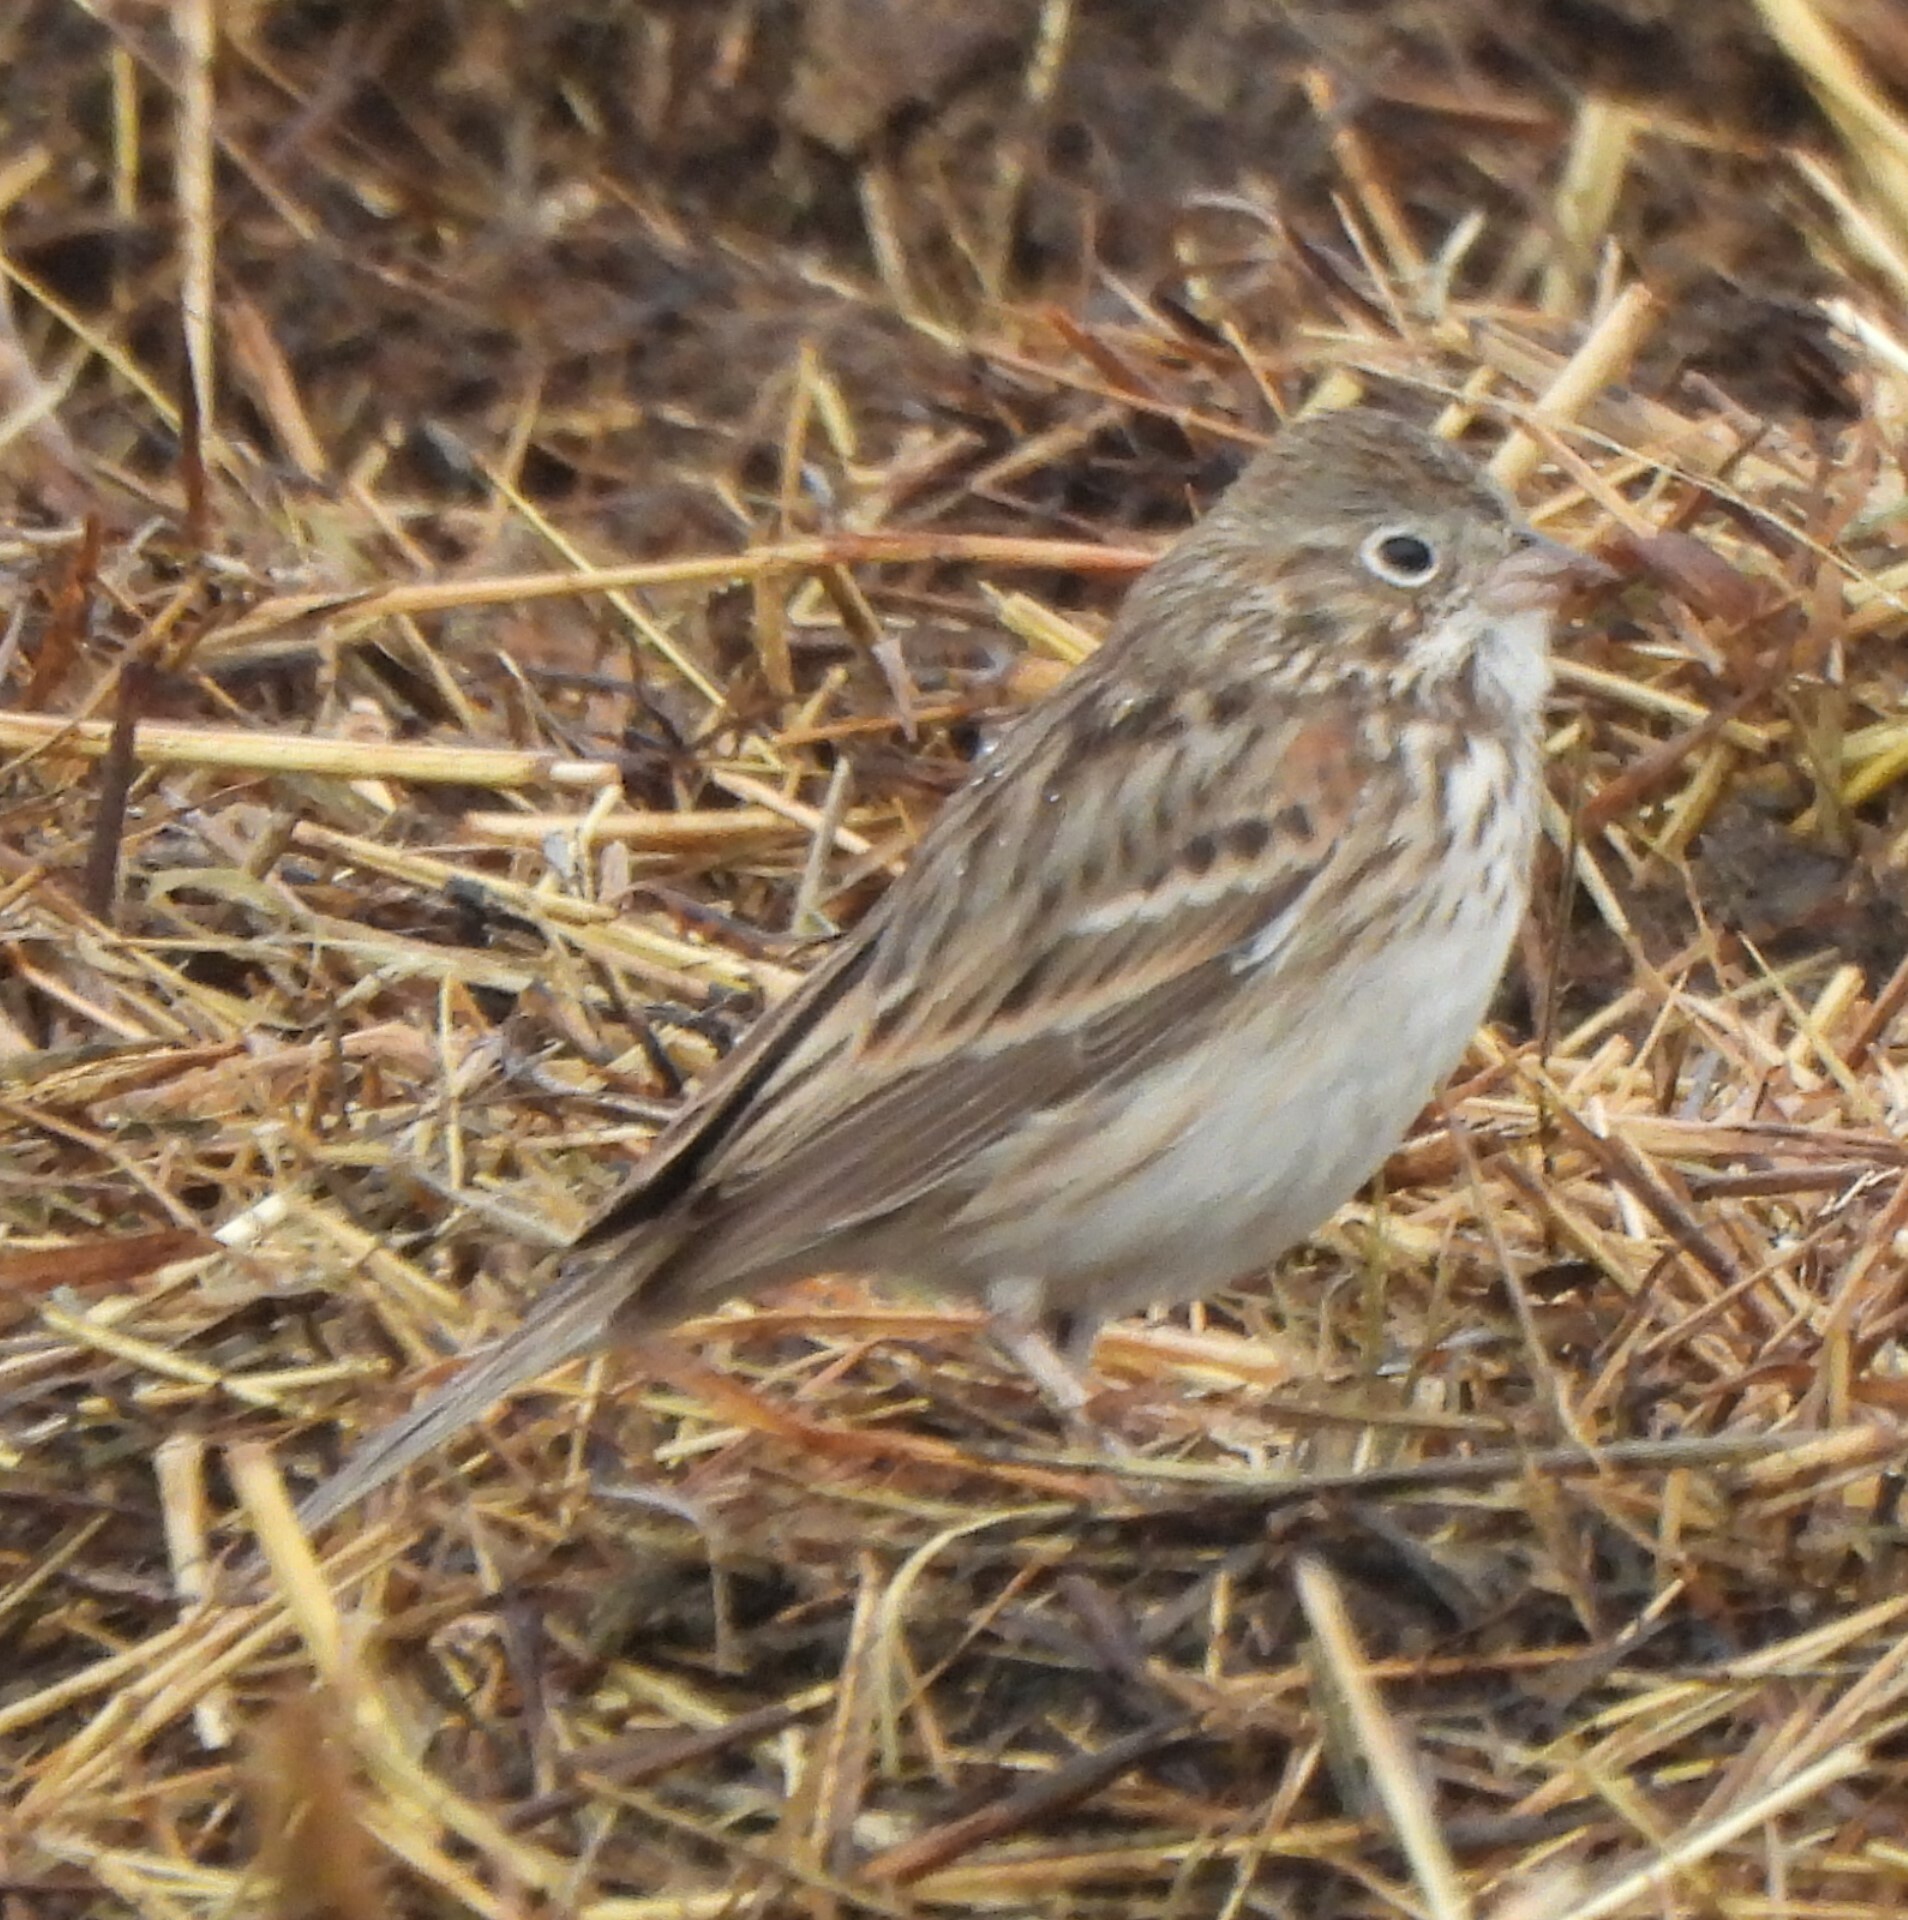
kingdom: Animalia
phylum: Chordata
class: Aves
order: Passeriformes
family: Passerellidae
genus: Pooecetes
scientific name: Pooecetes gramineus
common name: Vesper sparrow
